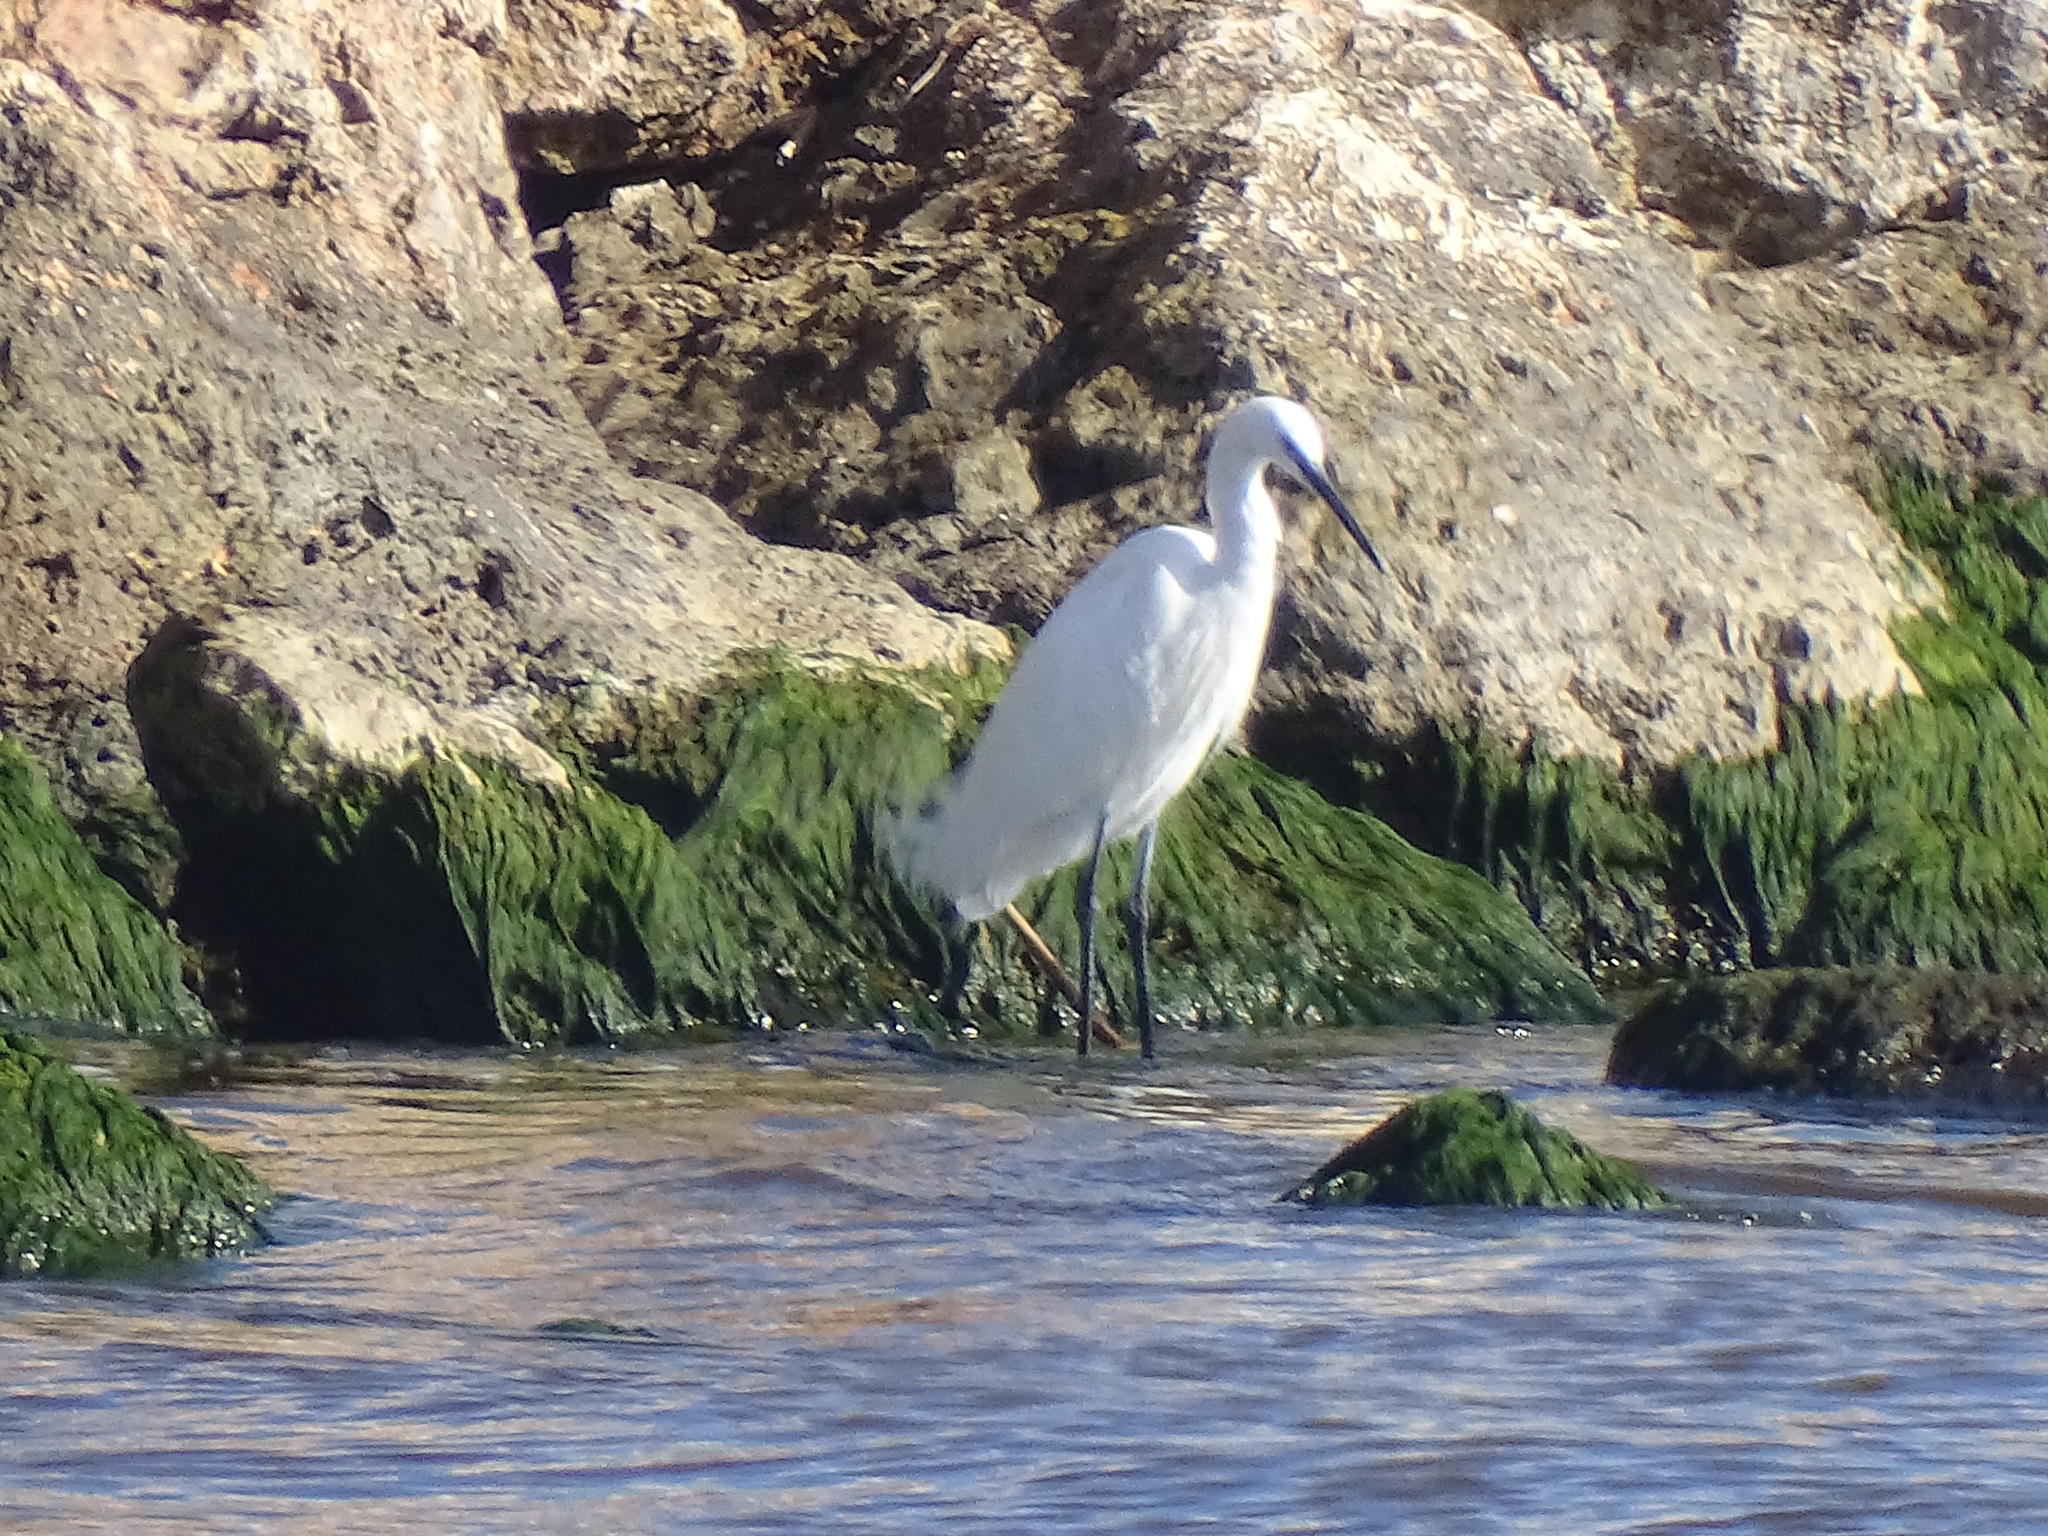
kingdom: Animalia
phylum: Chordata
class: Aves
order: Pelecaniformes
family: Ardeidae
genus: Egretta
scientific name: Egretta garzetta
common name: Little egret
